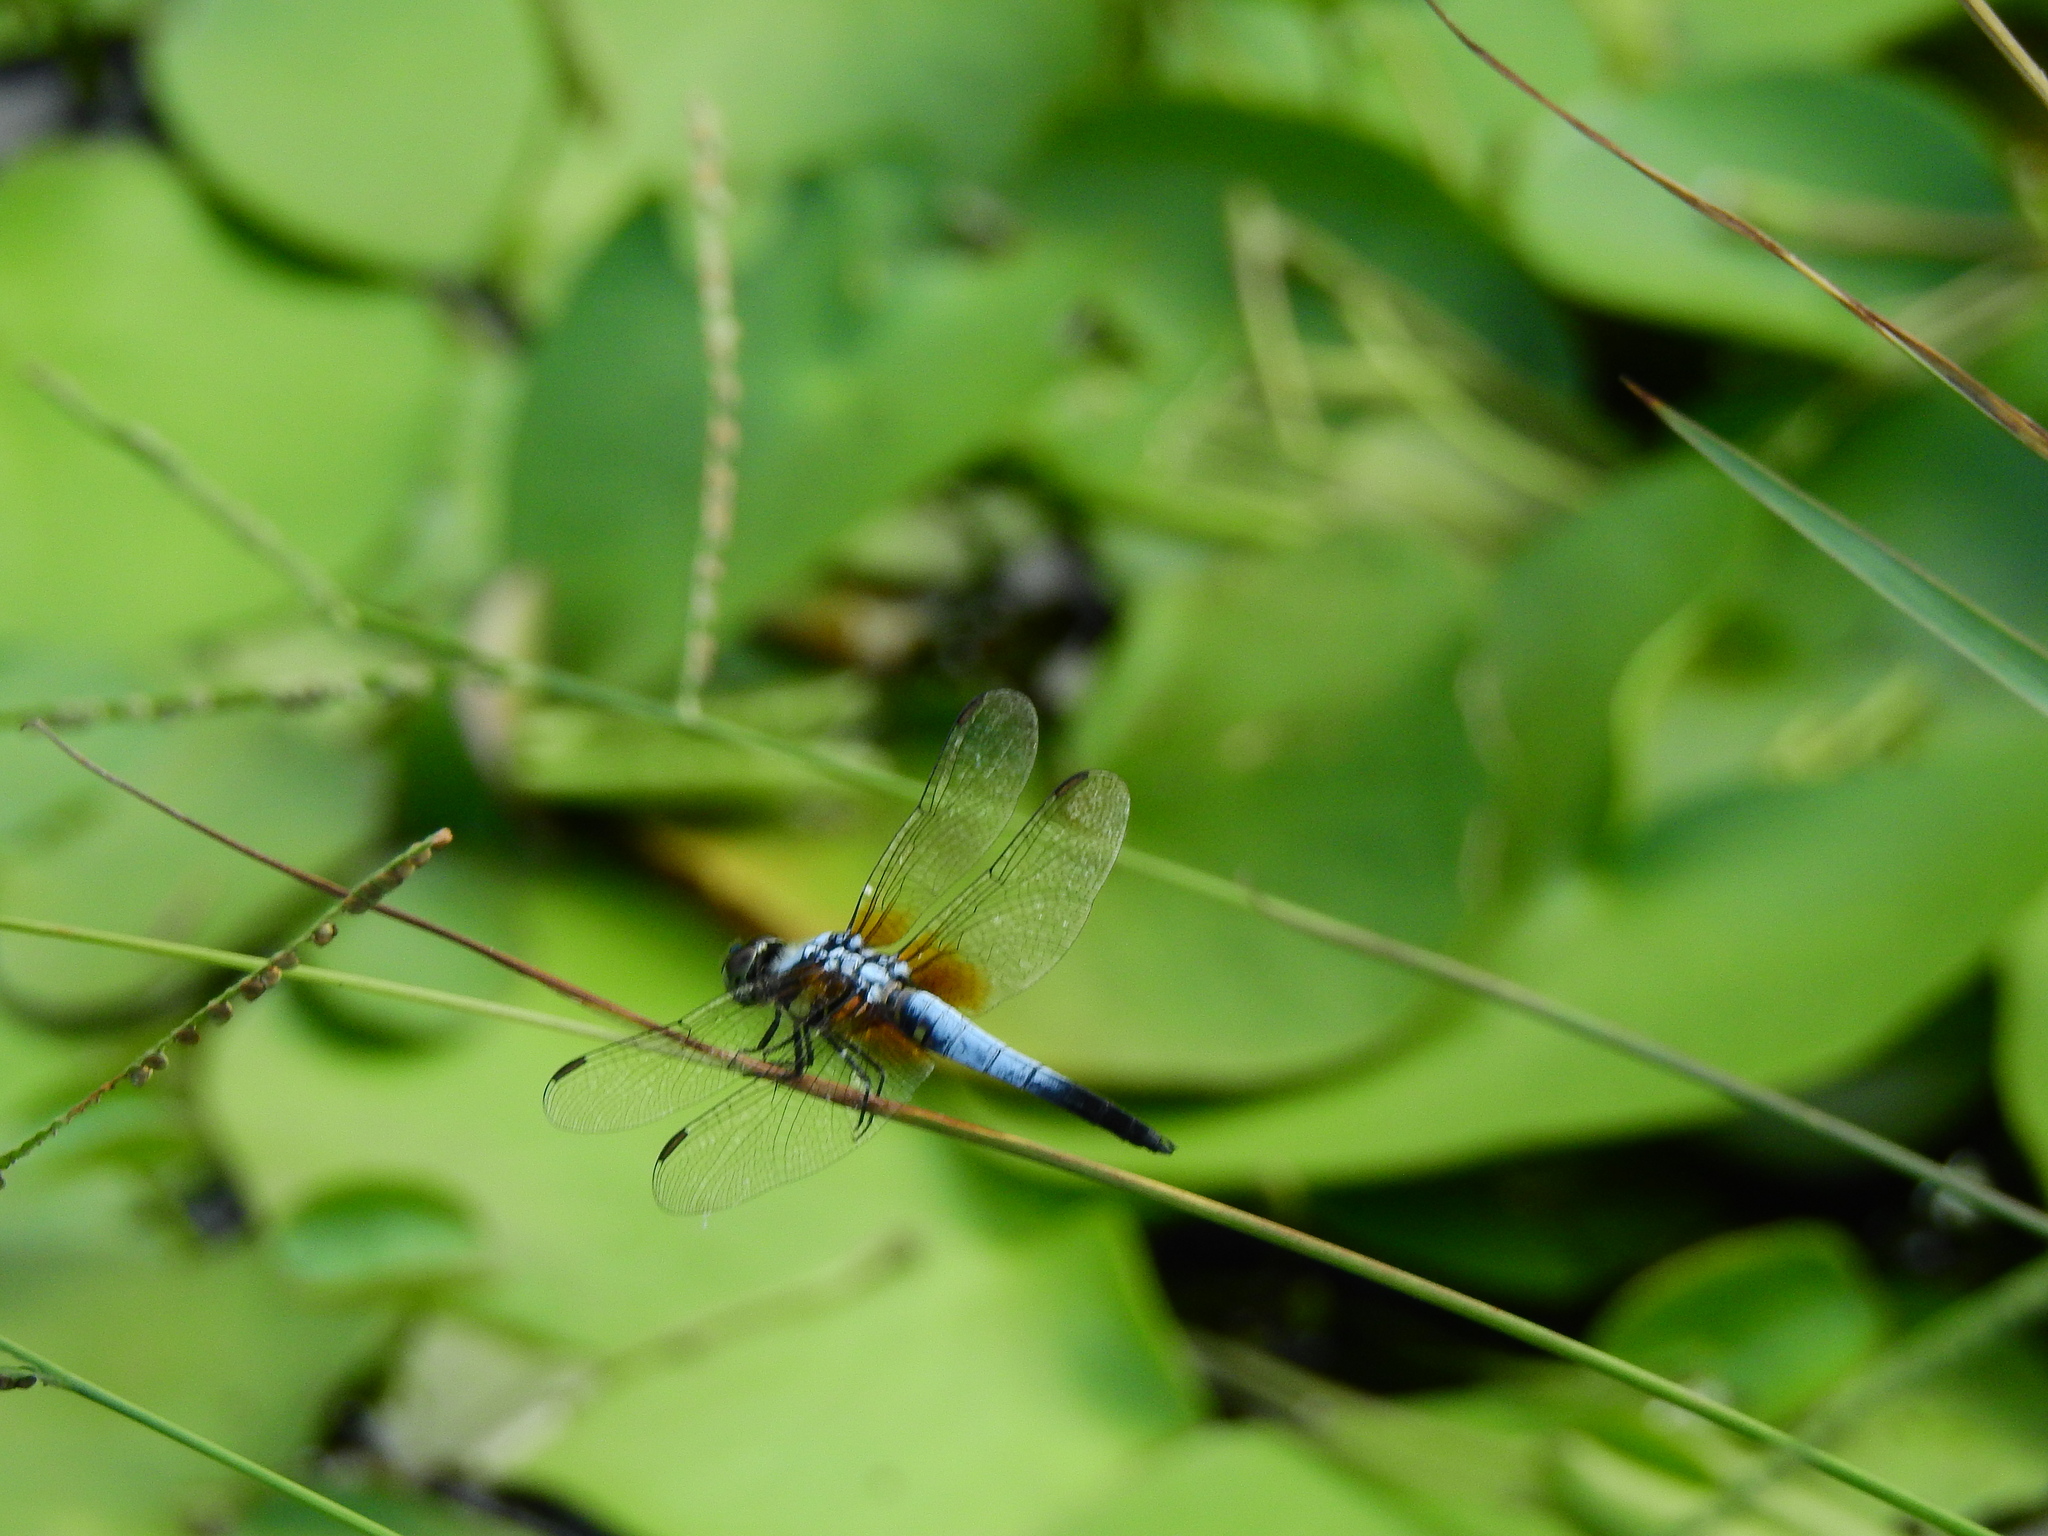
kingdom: Animalia
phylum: Arthropoda
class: Insecta
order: Odonata
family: Libellulidae
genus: Brachydiplax
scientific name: Brachydiplax chalybea
